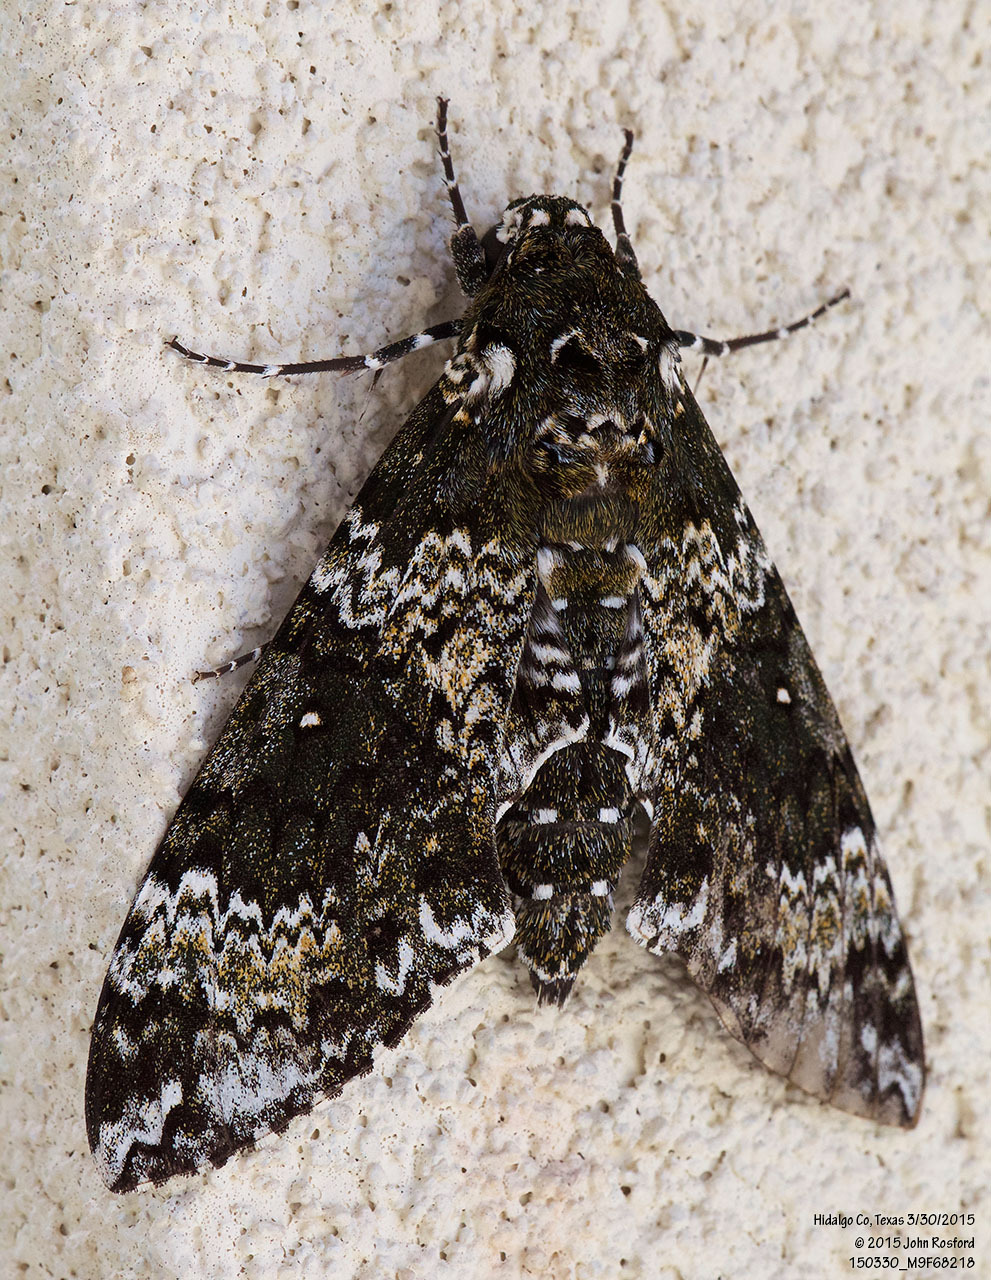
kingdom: Animalia
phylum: Arthropoda
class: Insecta
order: Lepidoptera
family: Sphingidae
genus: Manduca
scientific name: Manduca rustica
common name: Rustic sphinx
